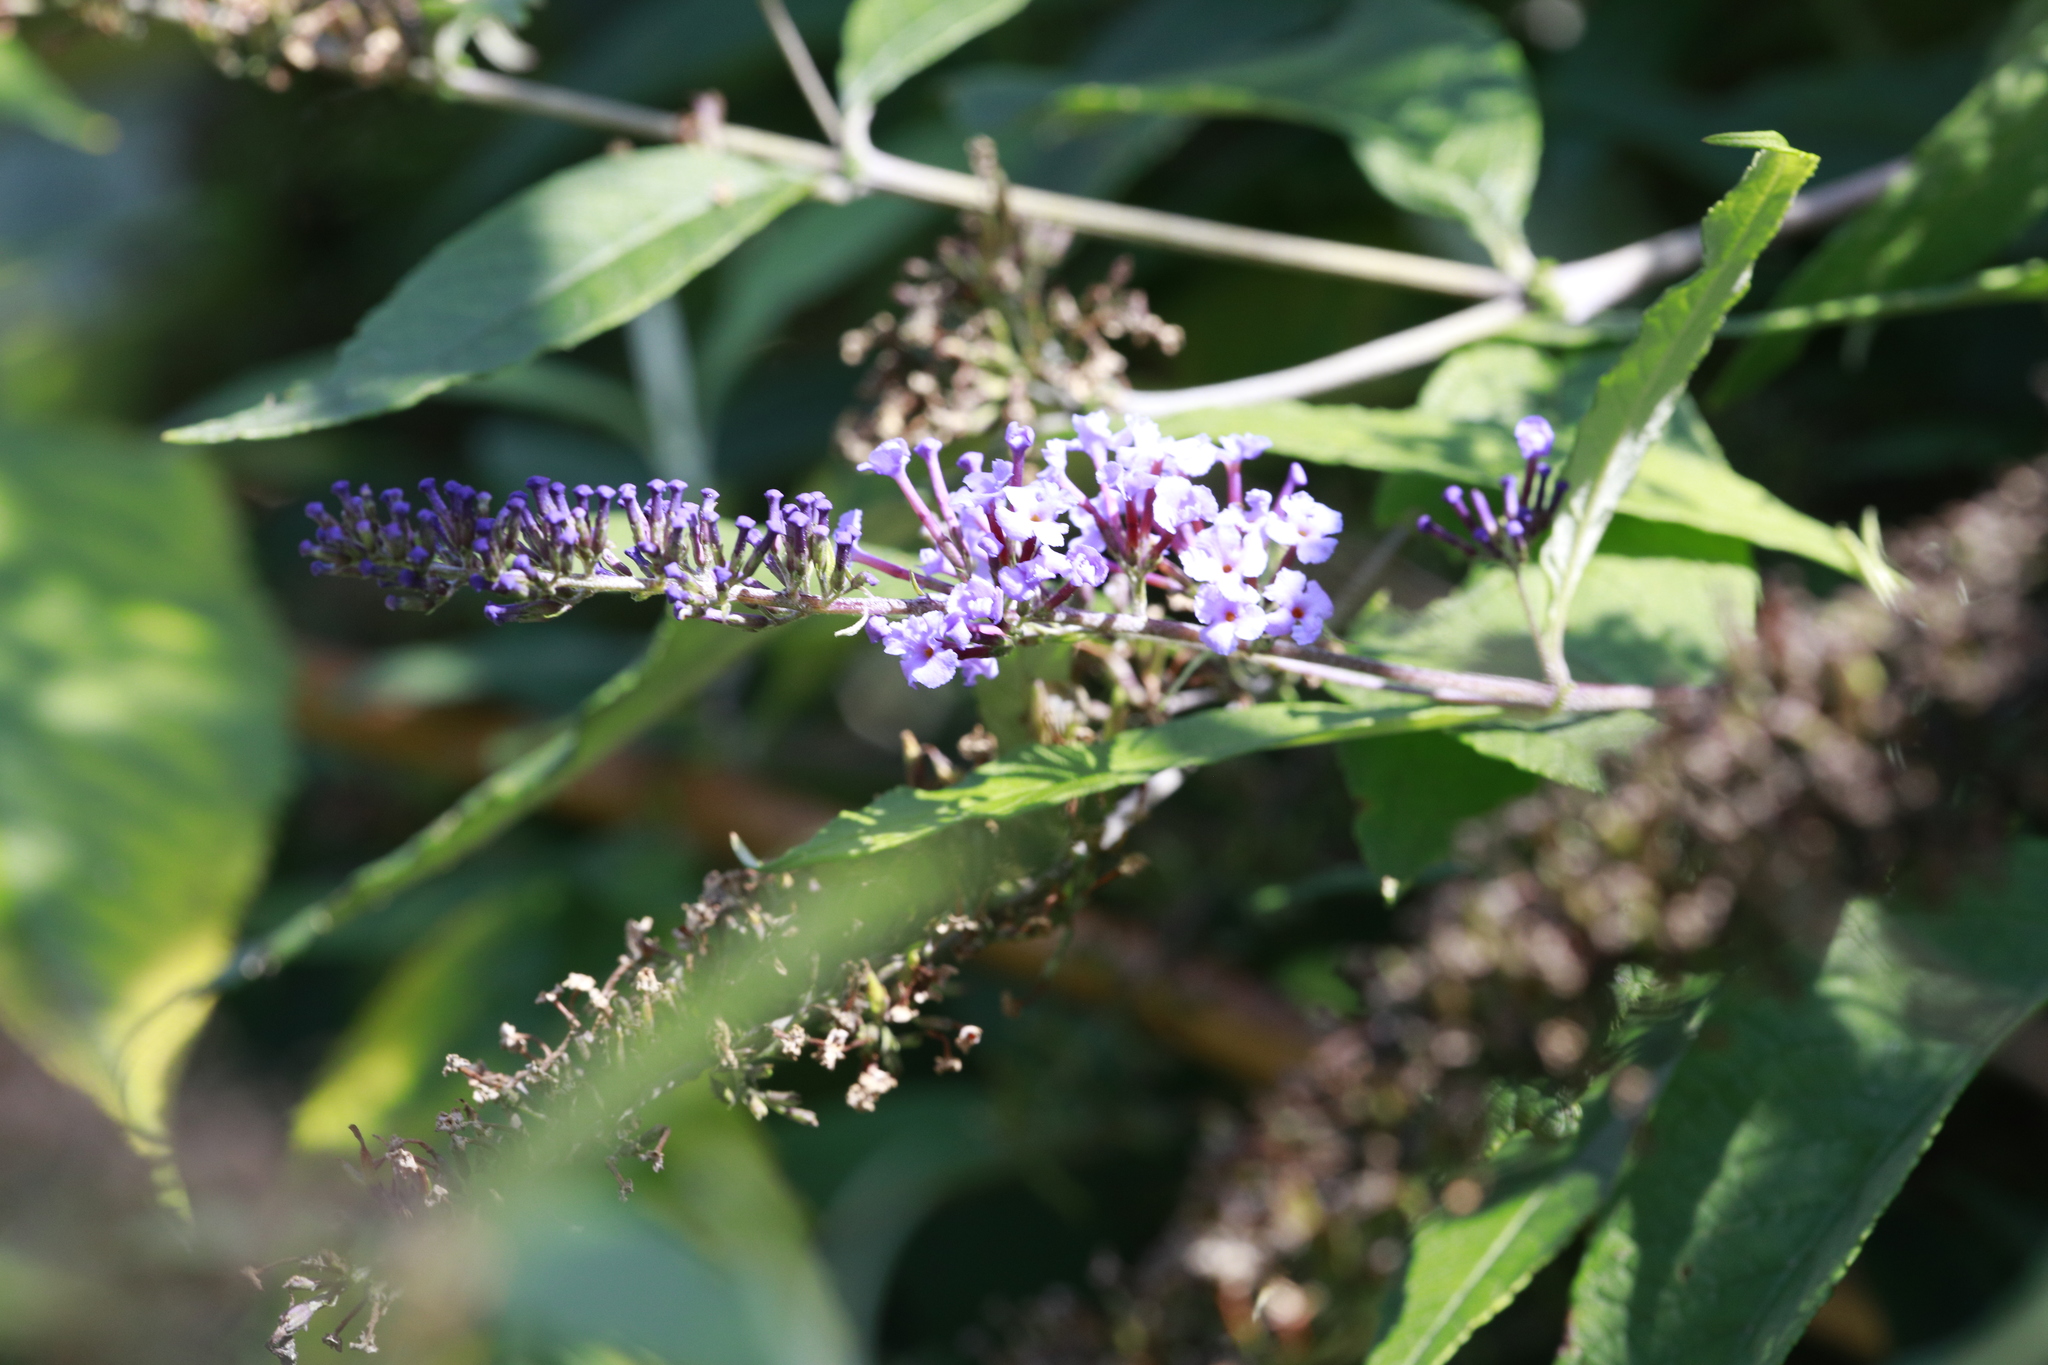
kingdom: Plantae
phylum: Tracheophyta
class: Magnoliopsida
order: Lamiales
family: Scrophulariaceae
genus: Buddleja
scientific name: Buddleja davidii
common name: Butterfly-bush
